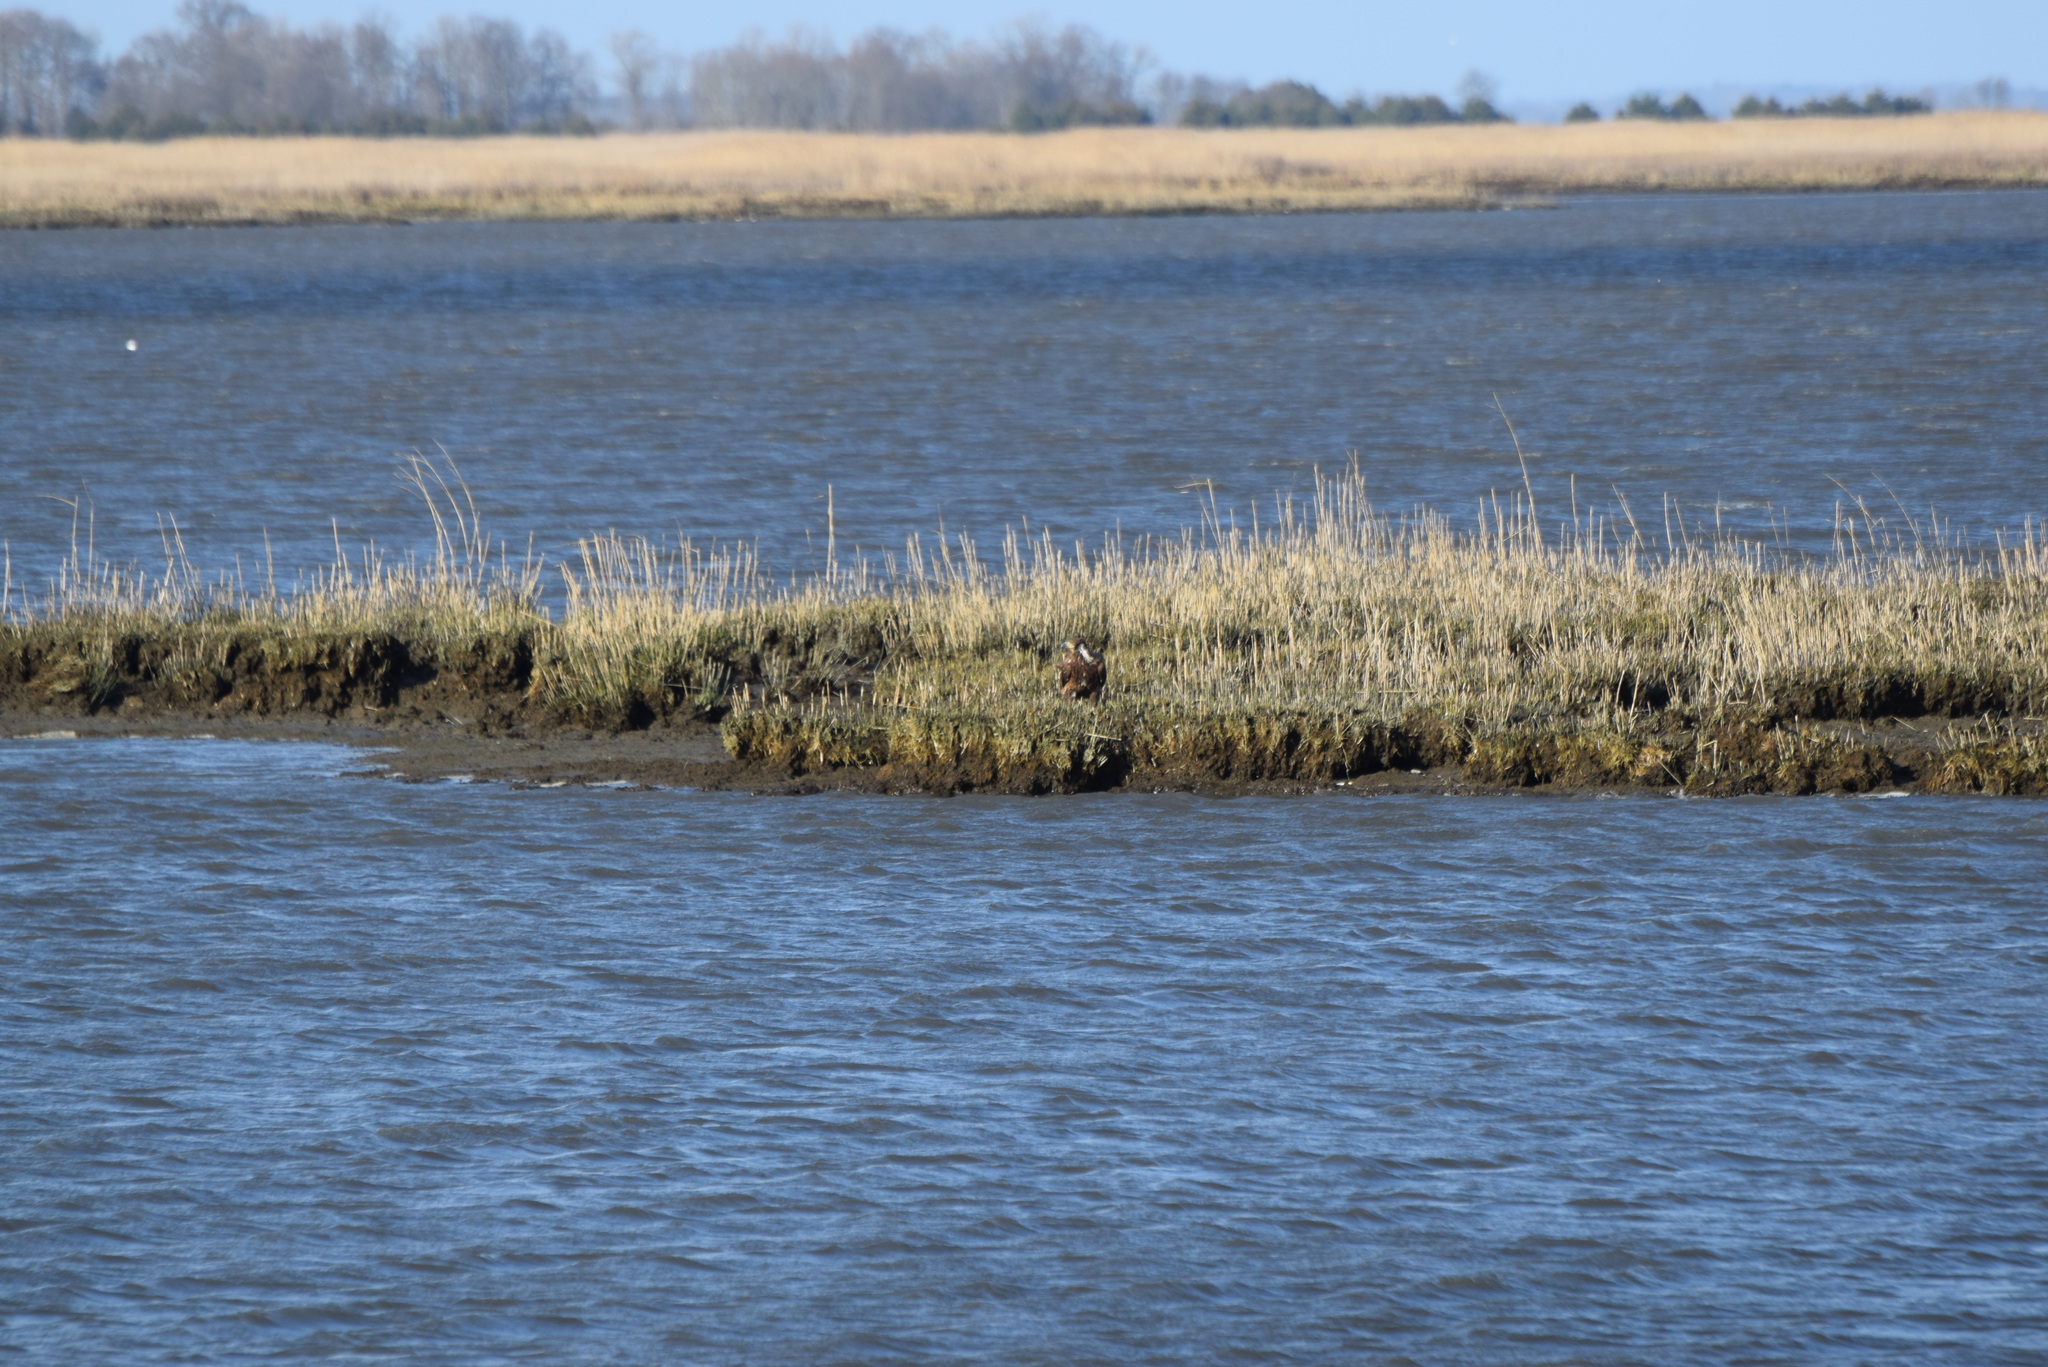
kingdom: Animalia
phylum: Chordata
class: Aves
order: Accipitriformes
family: Accipitridae
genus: Haliaeetus
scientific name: Haliaeetus leucocephalus
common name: Bald eagle
